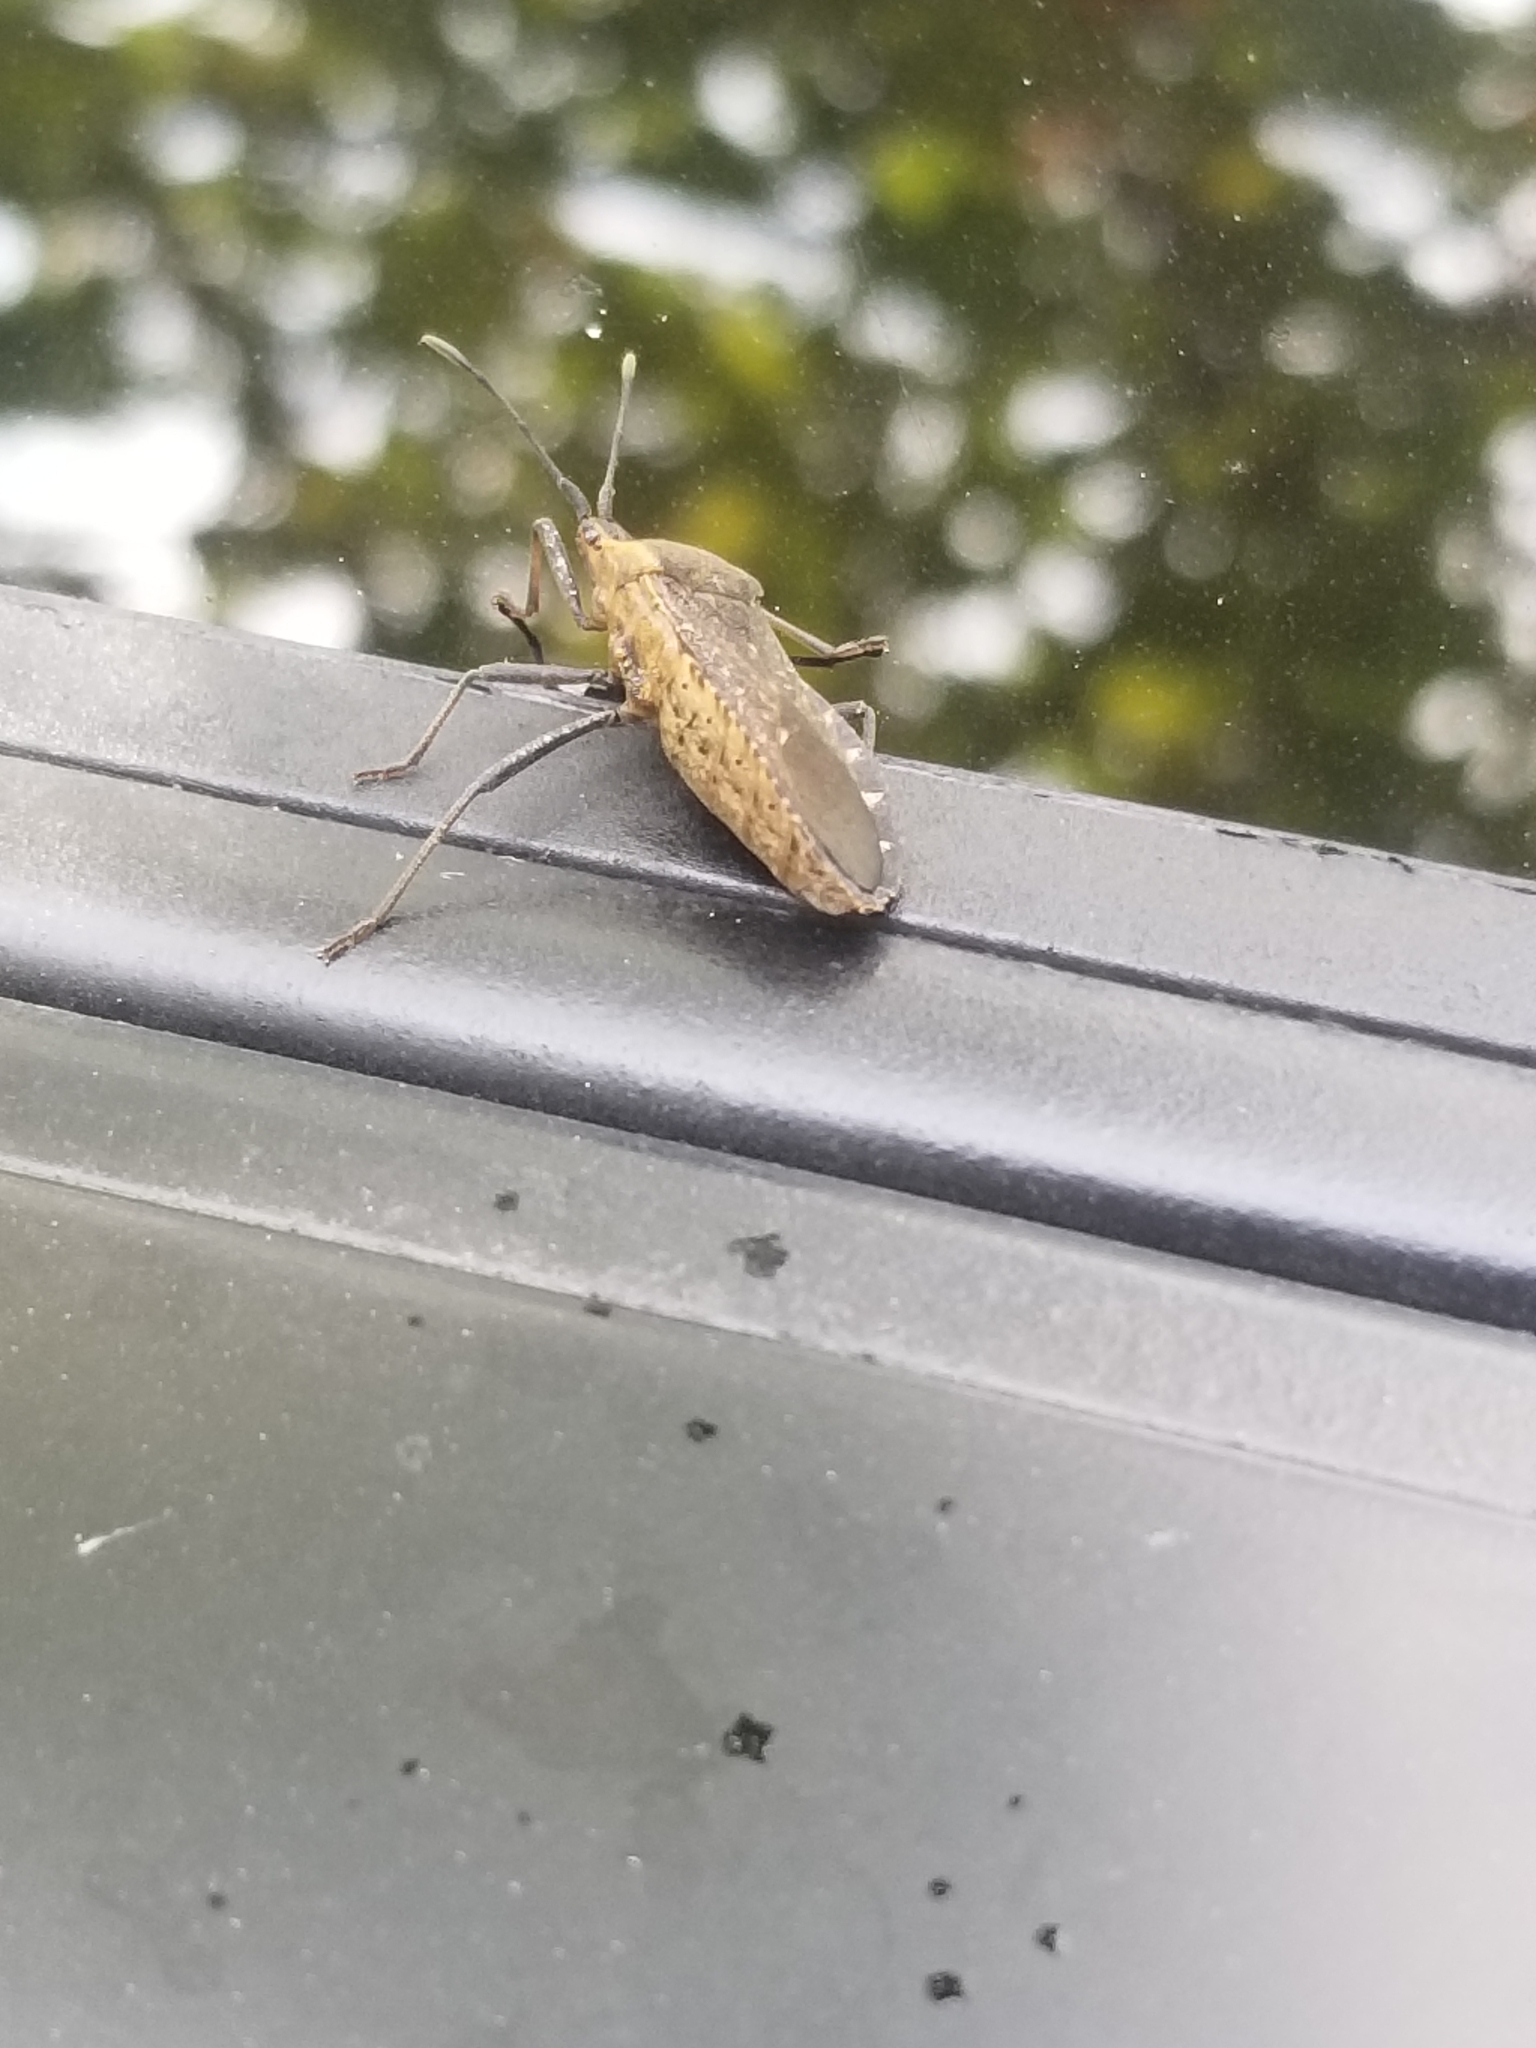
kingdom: Animalia
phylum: Arthropoda
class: Insecta
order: Hemiptera
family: Coreidae
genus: Anasa
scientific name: Anasa tristis
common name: Squash bug
